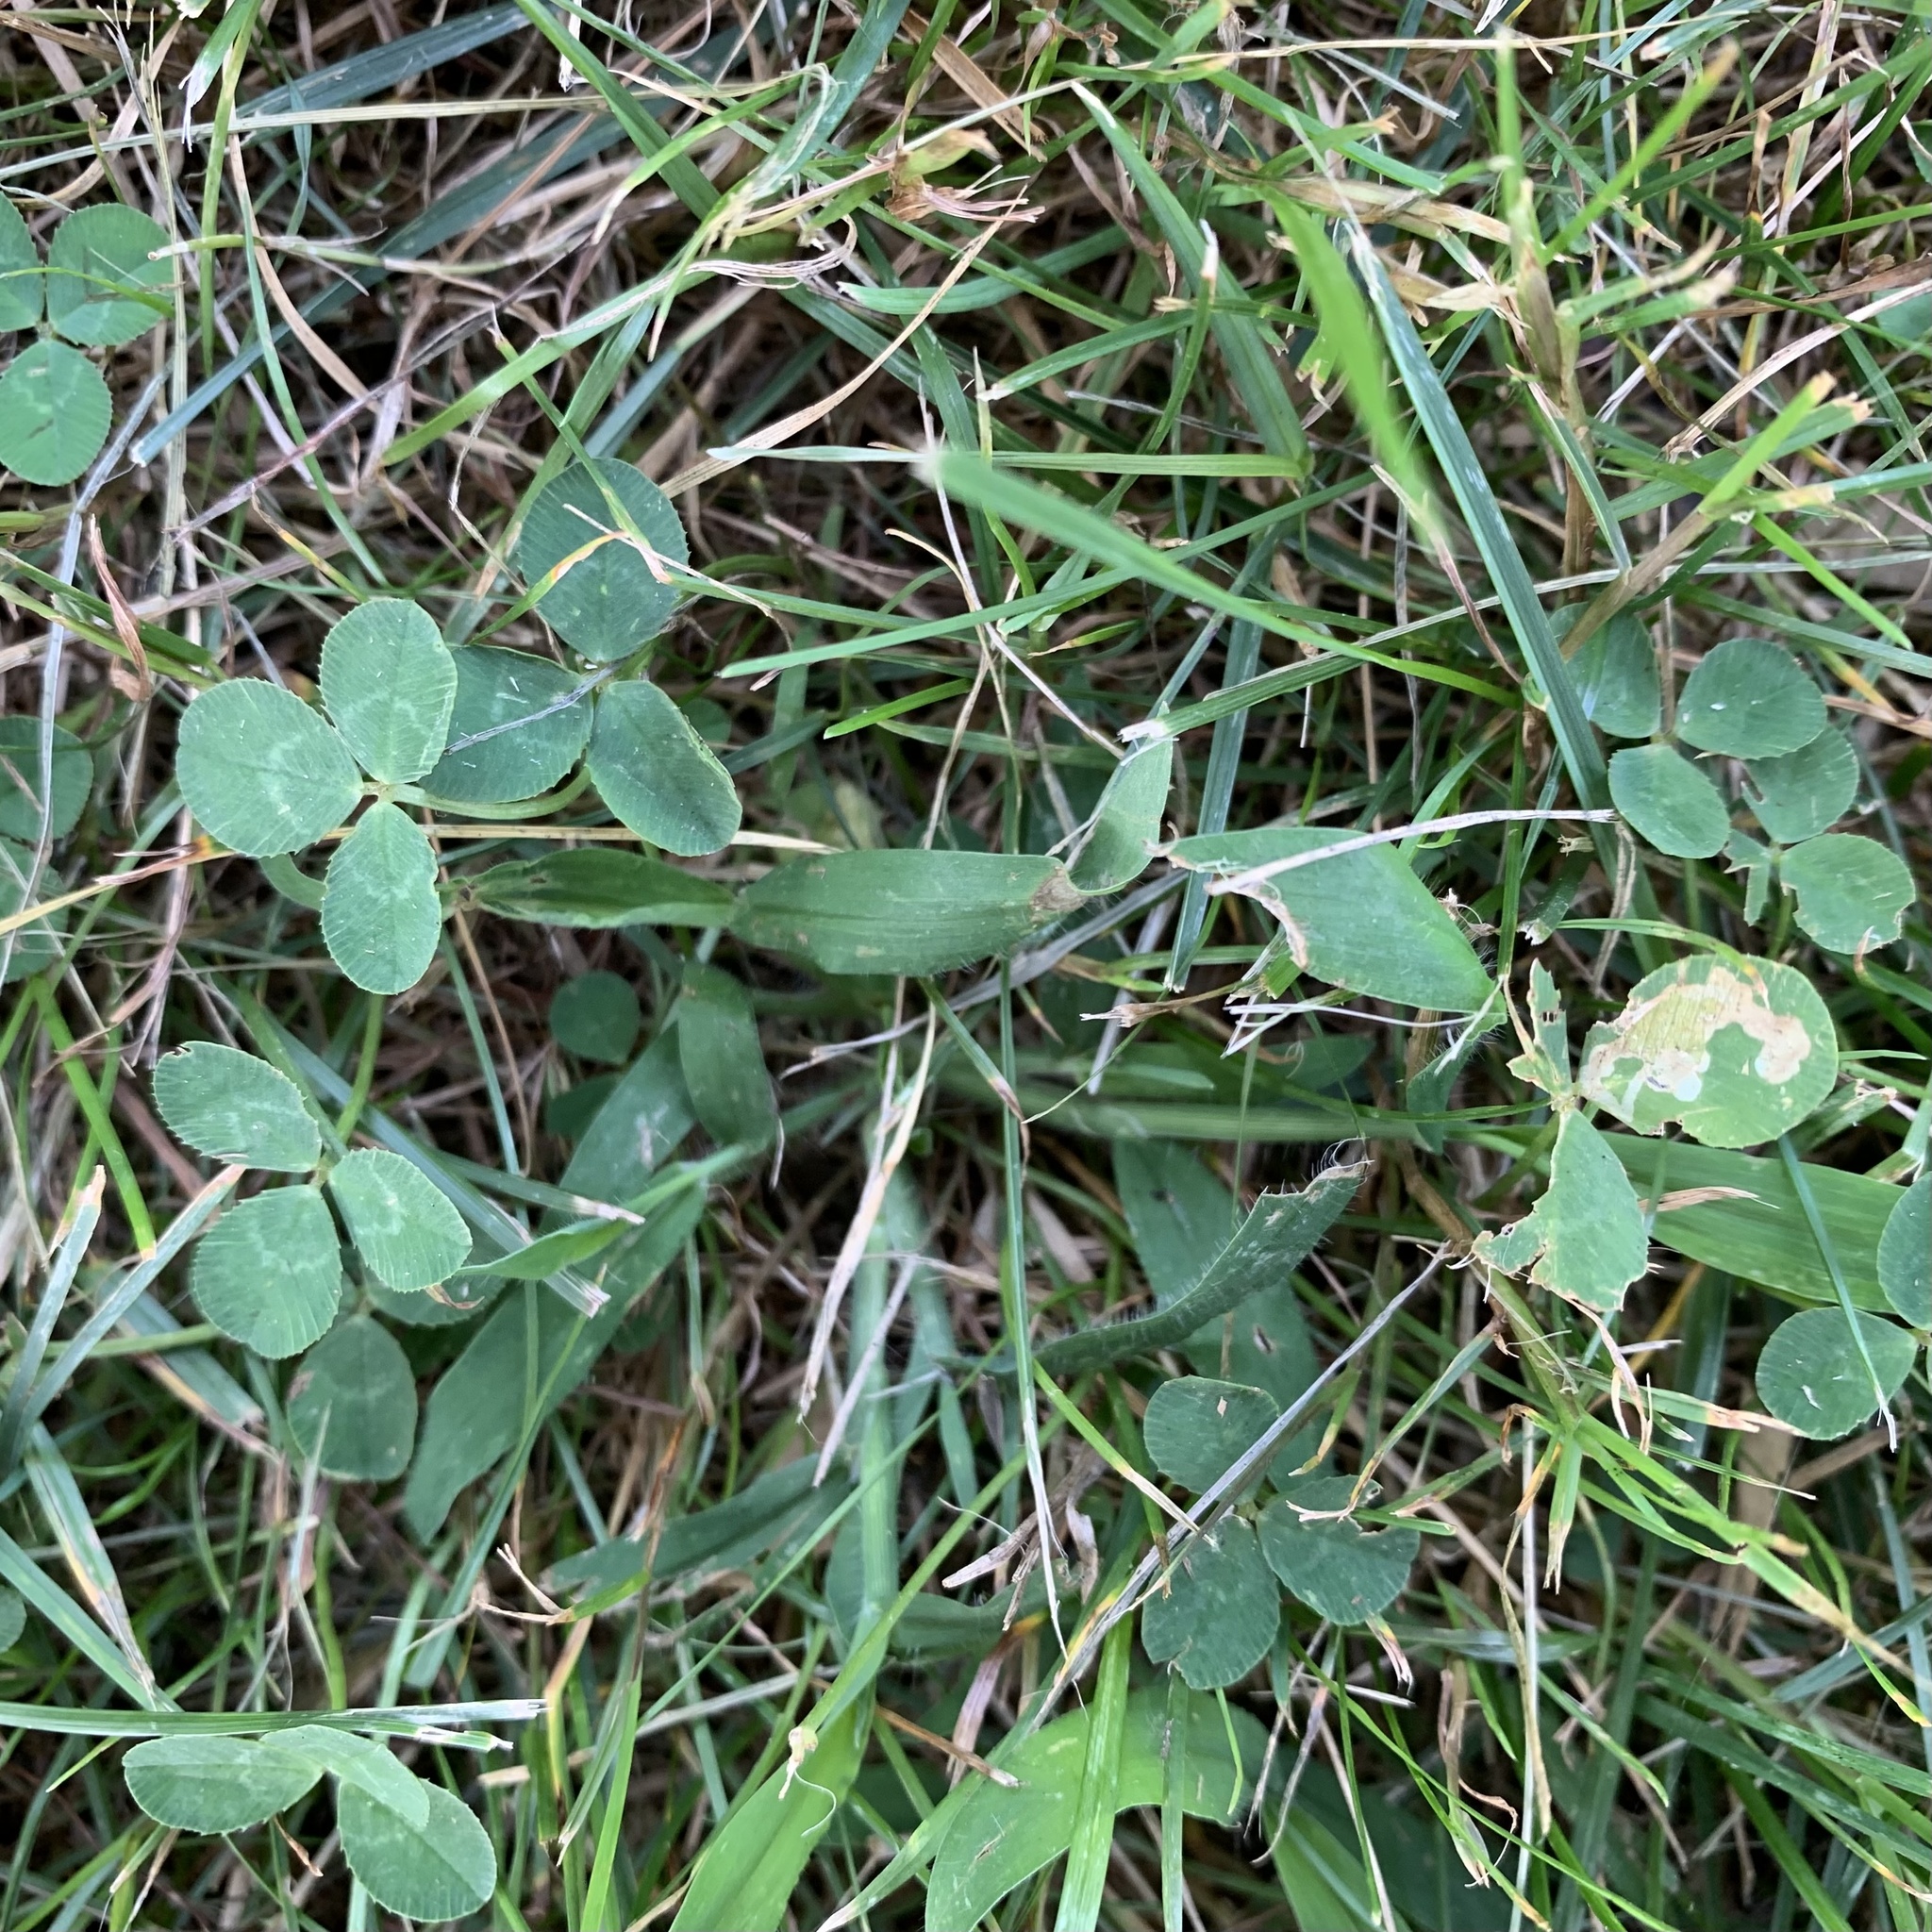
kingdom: Plantae
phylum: Tracheophyta
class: Magnoliopsida
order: Fabales
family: Fabaceae
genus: Trifolium
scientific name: Trifolium repens
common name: White clover
